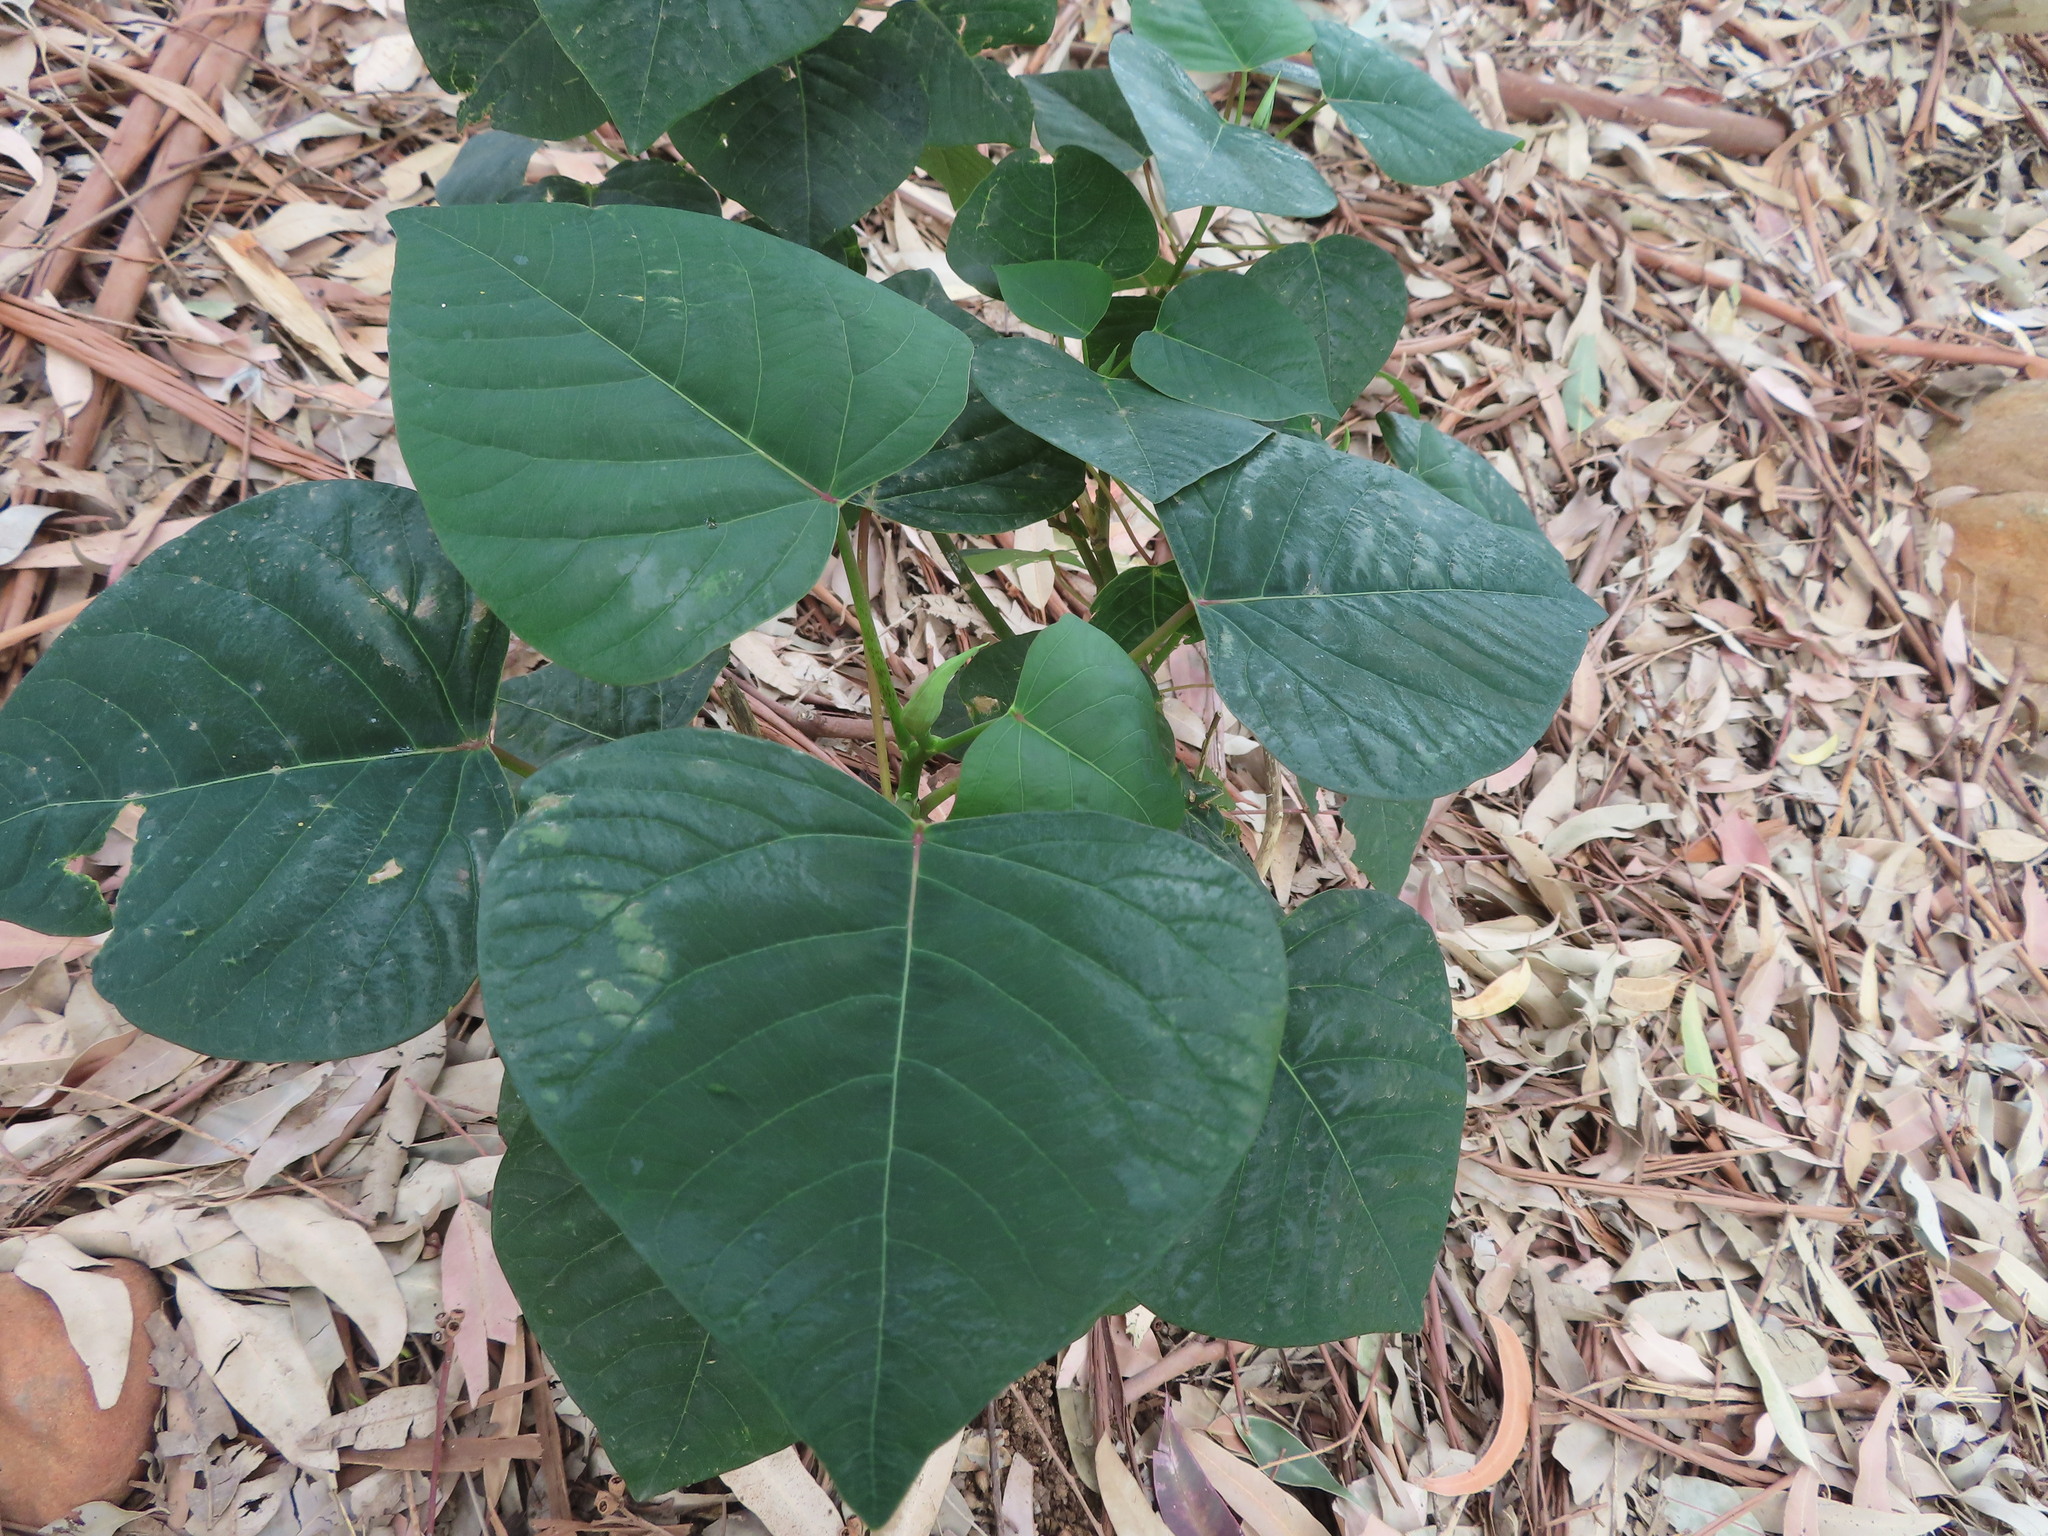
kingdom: Plantae
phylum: Tracheophyta
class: Magnoliopsida
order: Malpighiales
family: Euphorbiaceae
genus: Homalanthus
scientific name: Homalanthus populifolius
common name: Queensland poplar
